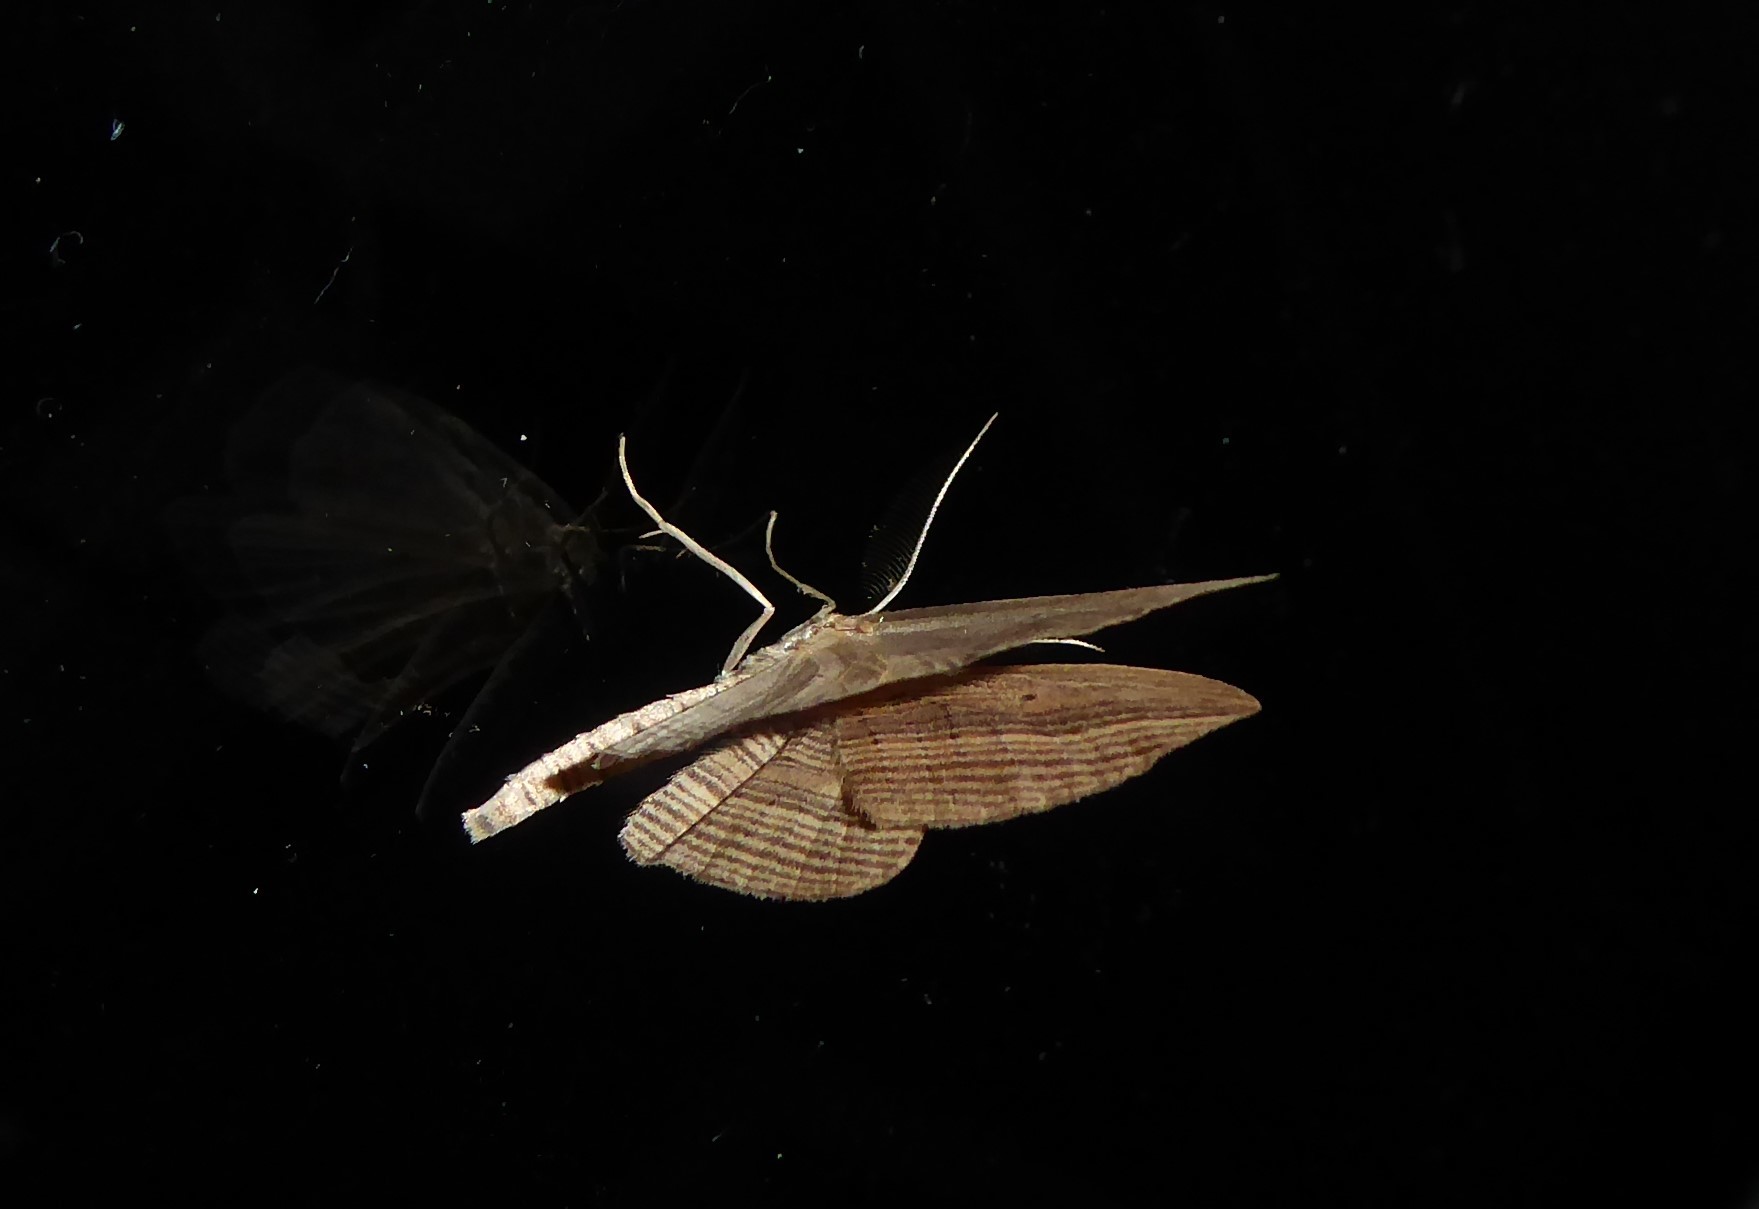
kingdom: Animalia
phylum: Arthropoda
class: Insecta
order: Lepidoptera
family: Geometridae
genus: Epiphryne
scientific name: Epiphryne verriculata
